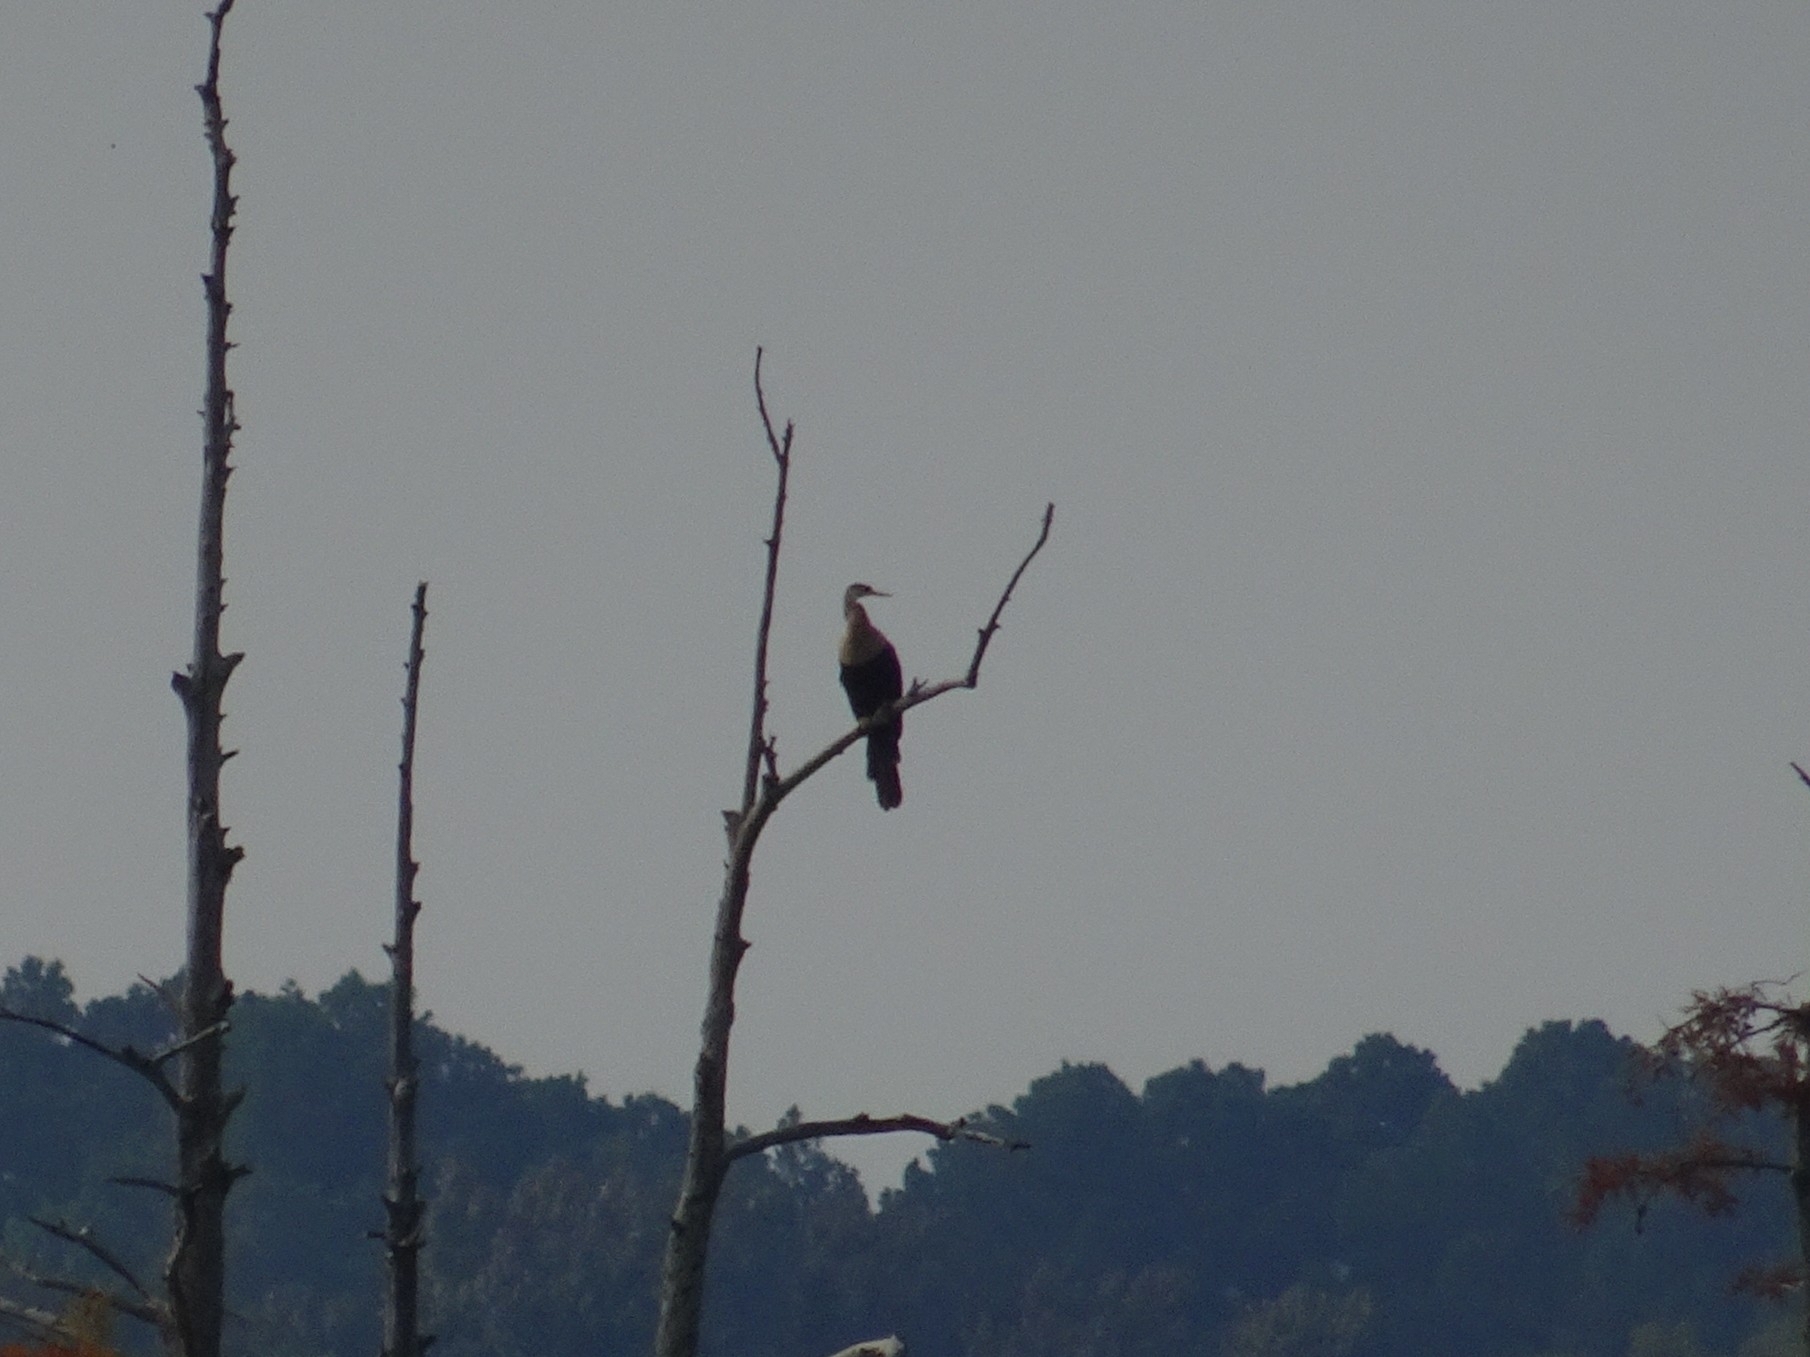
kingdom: Animalia
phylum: Chordata
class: Aves
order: Suliformes
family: Anhingidae
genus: Anhinga
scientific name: Anhinga anhinga
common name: Anhinga
